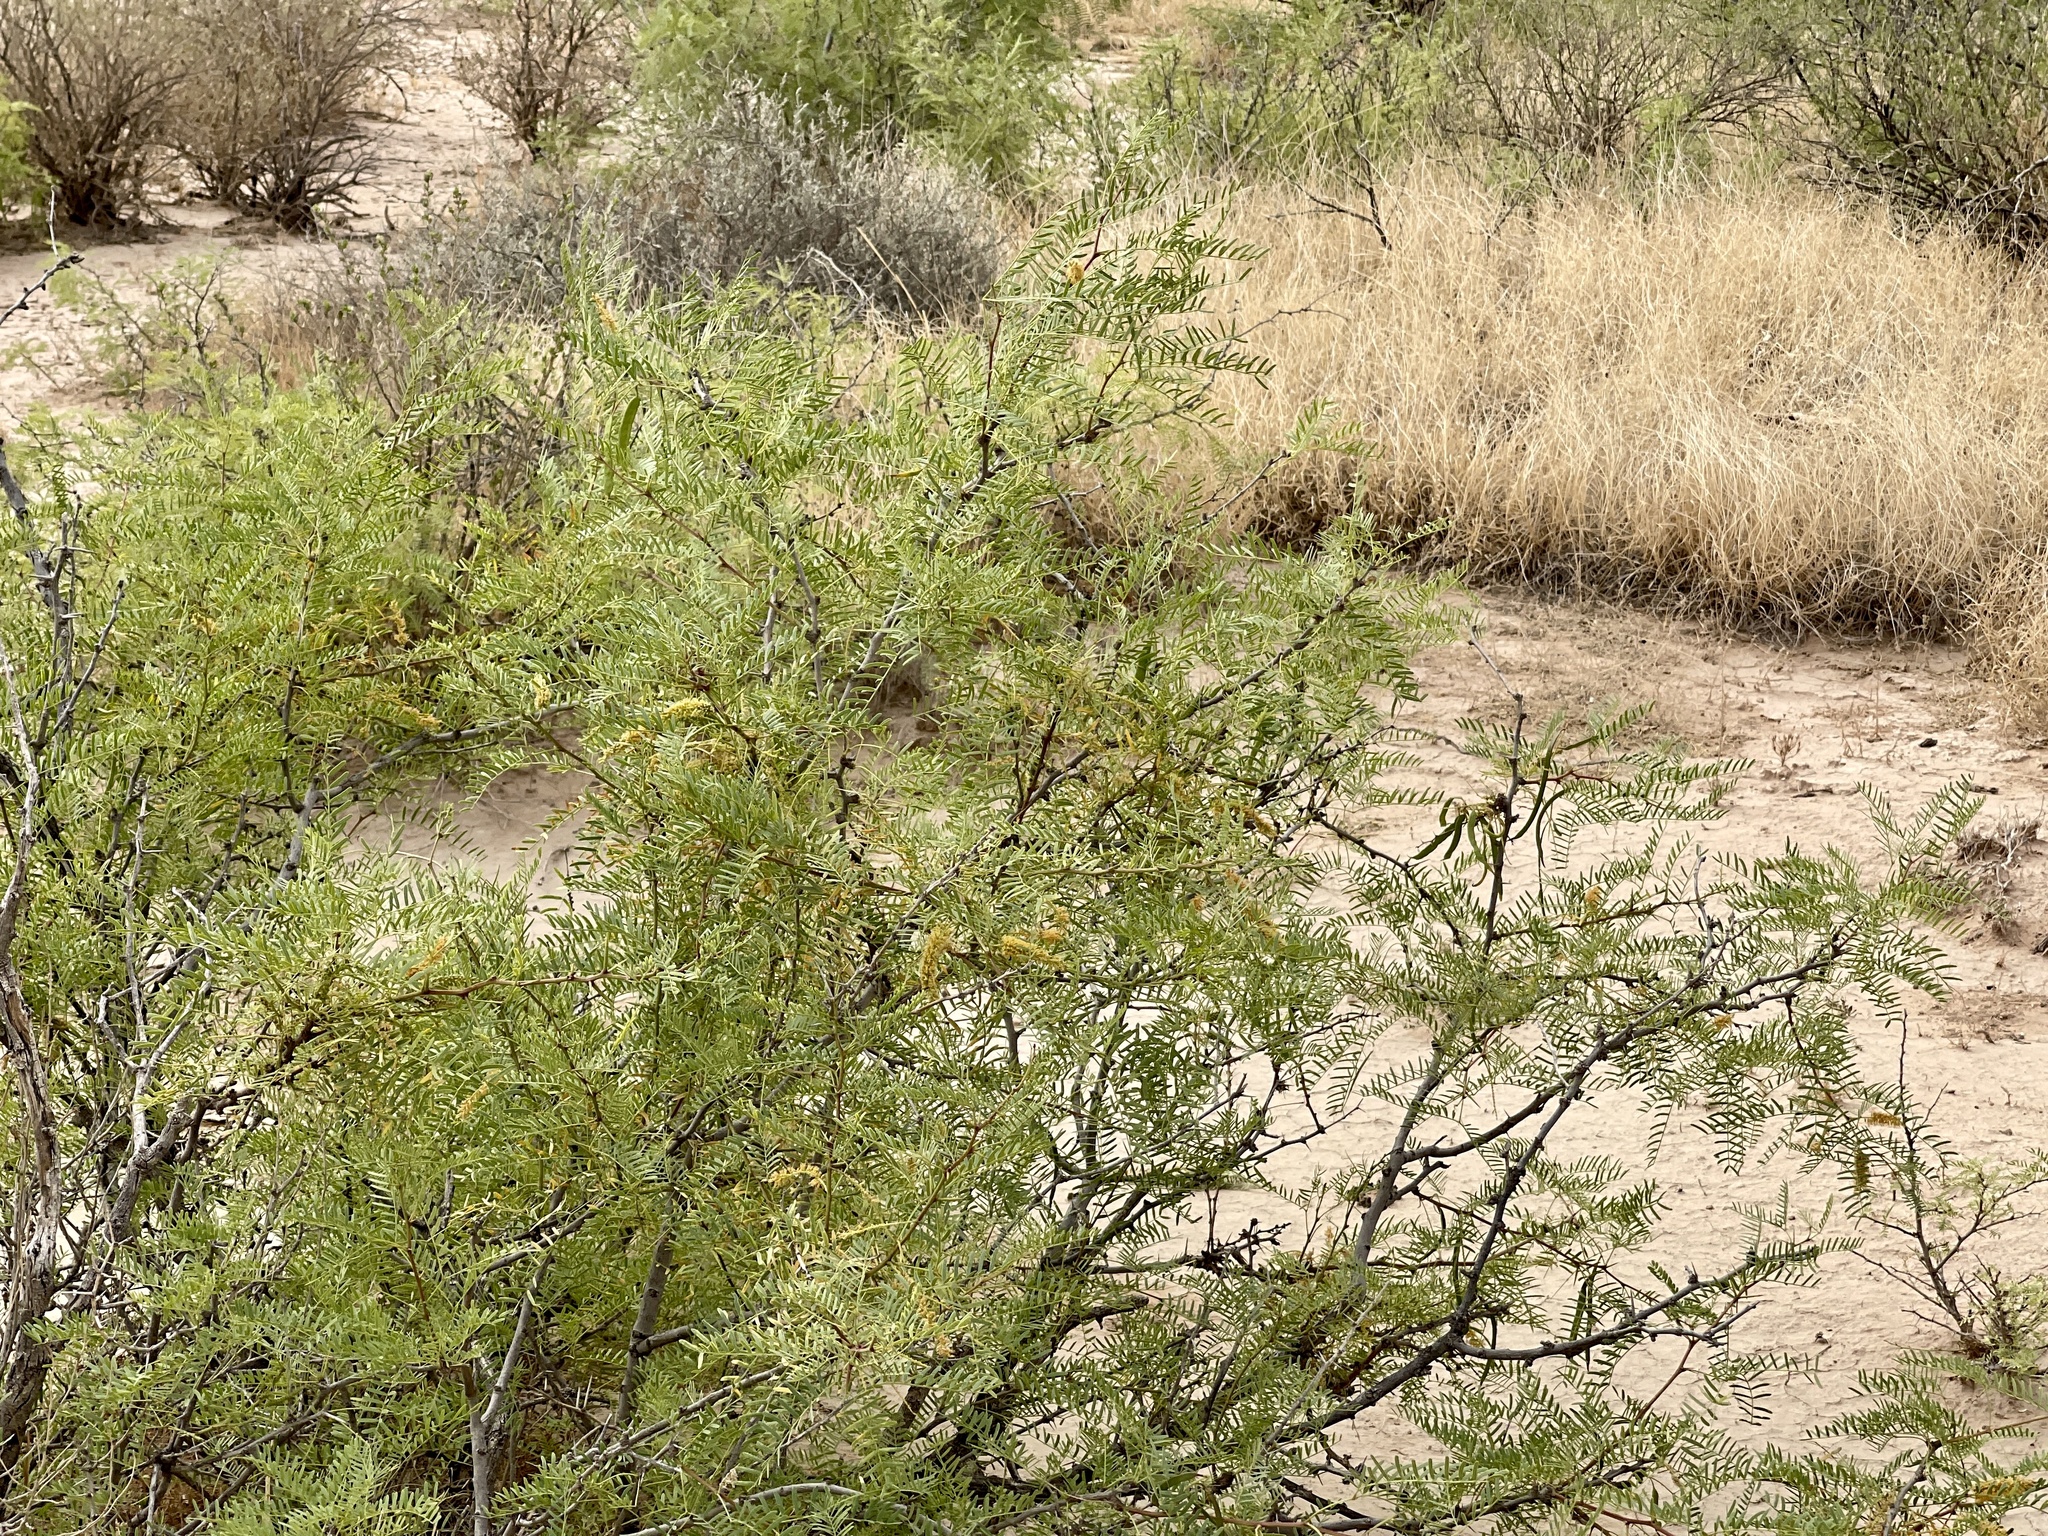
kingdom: Plantae
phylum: Tracheophyta
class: Magnoliopsida
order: Fabales
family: Fabaceae
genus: Prosopis
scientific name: Prosopis glandulosa
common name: Honey mesquite
